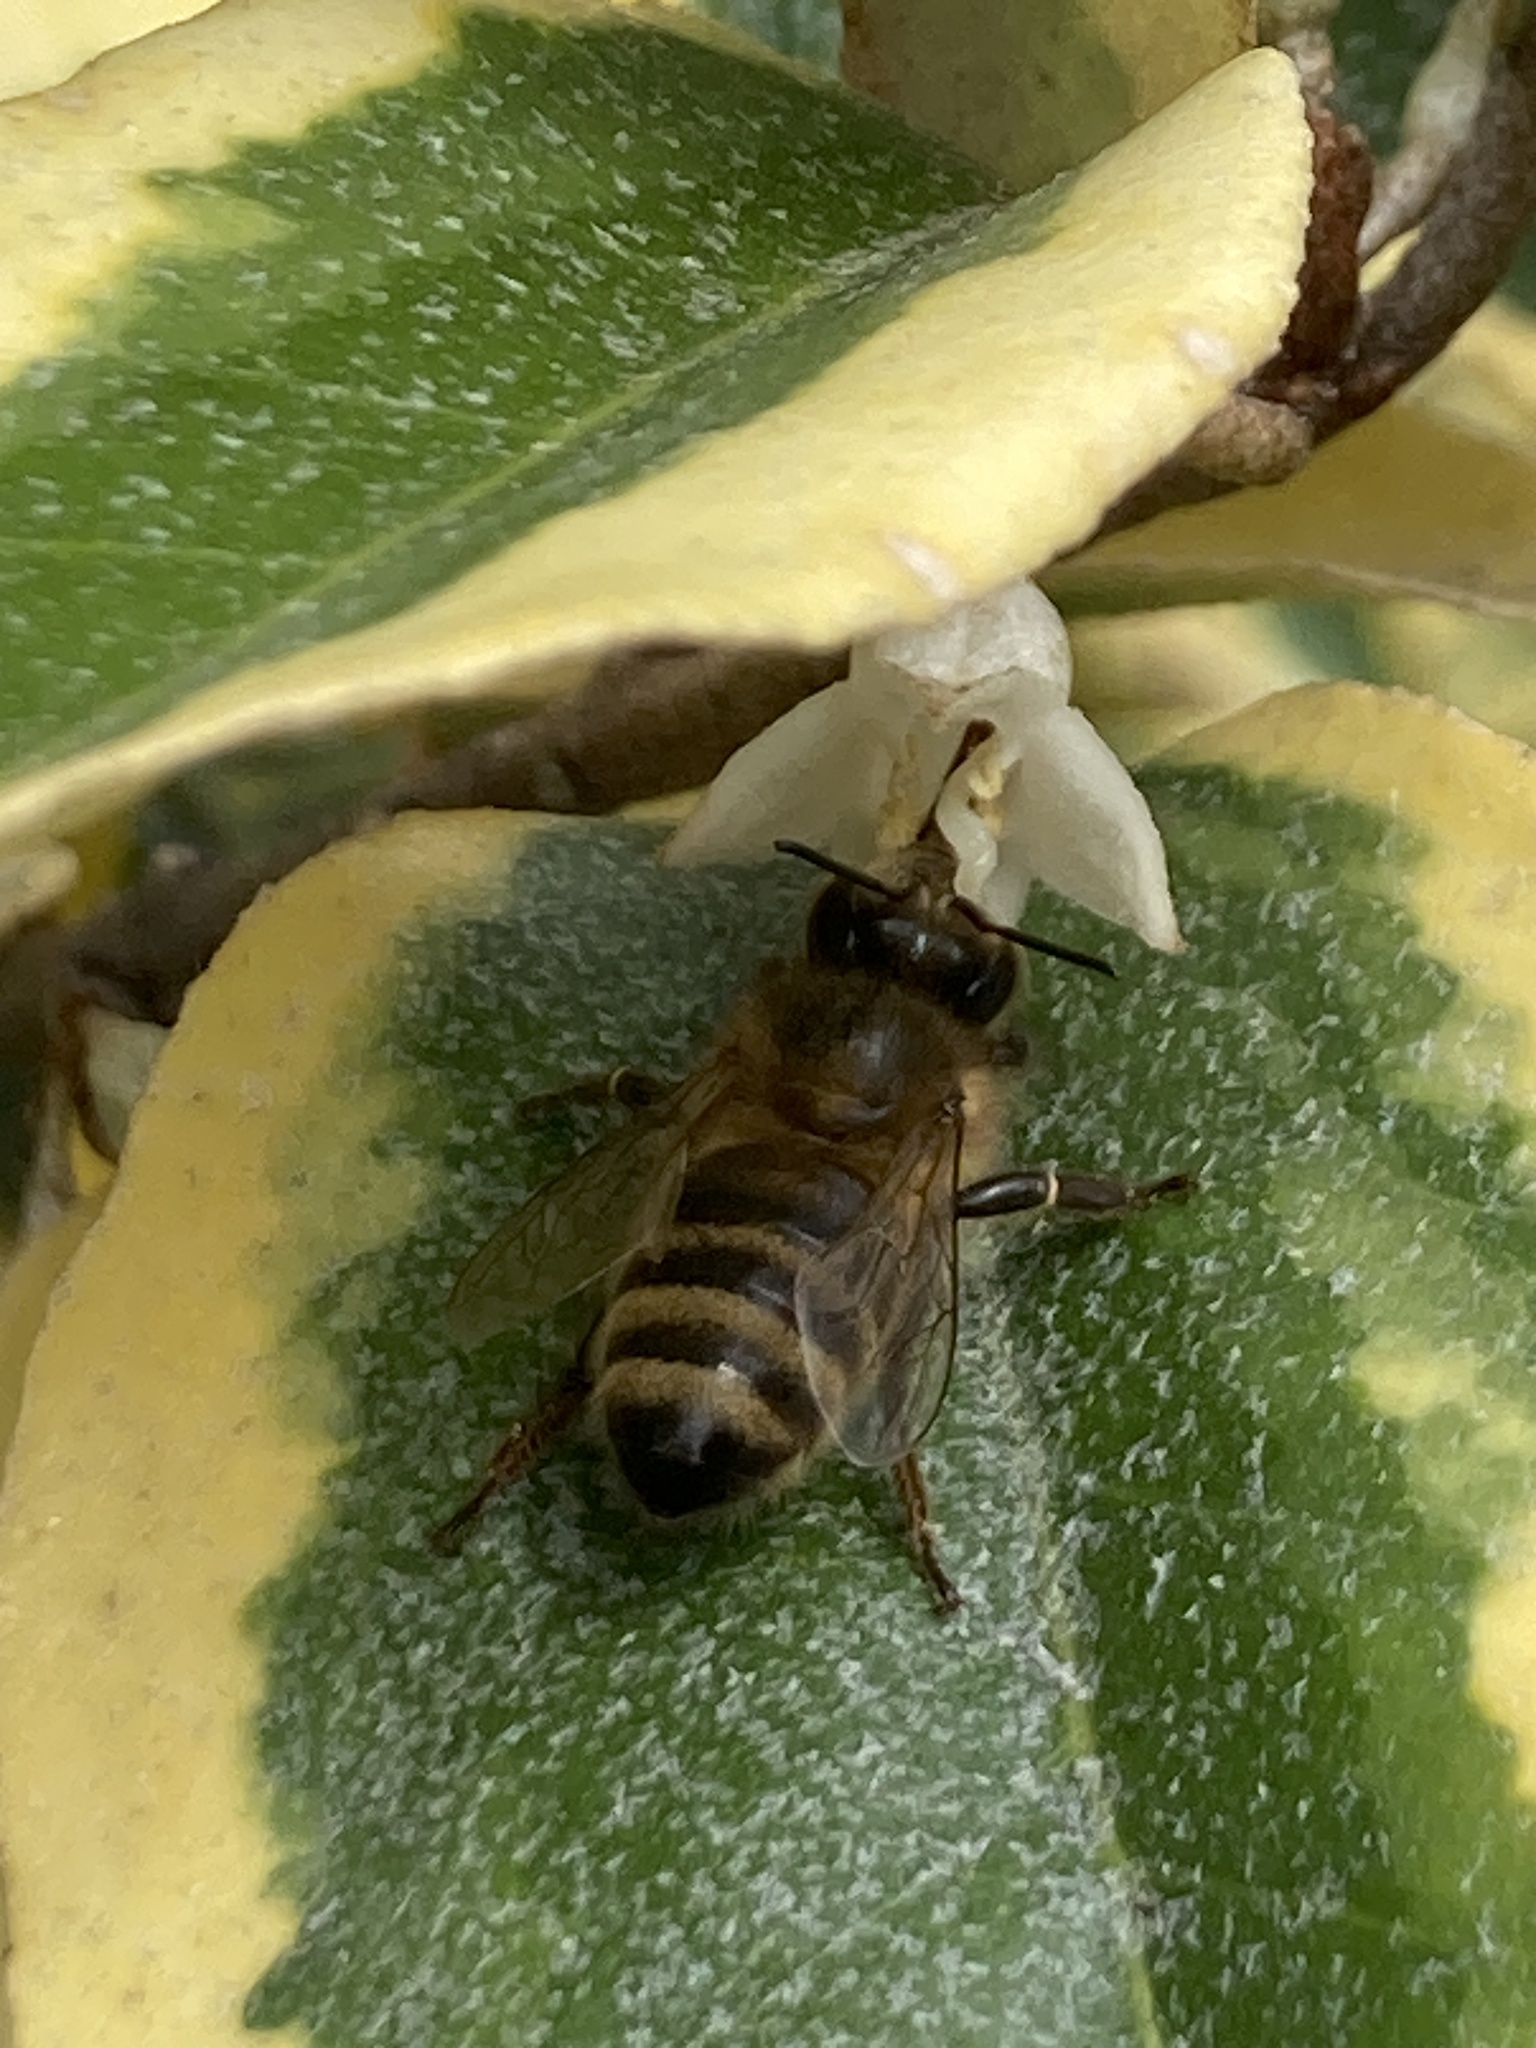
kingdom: Animalia
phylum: Arthropoda
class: Insecta
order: Hymenoptera
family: Apidae
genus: Apis
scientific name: Apis mellifera
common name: Honey bee
